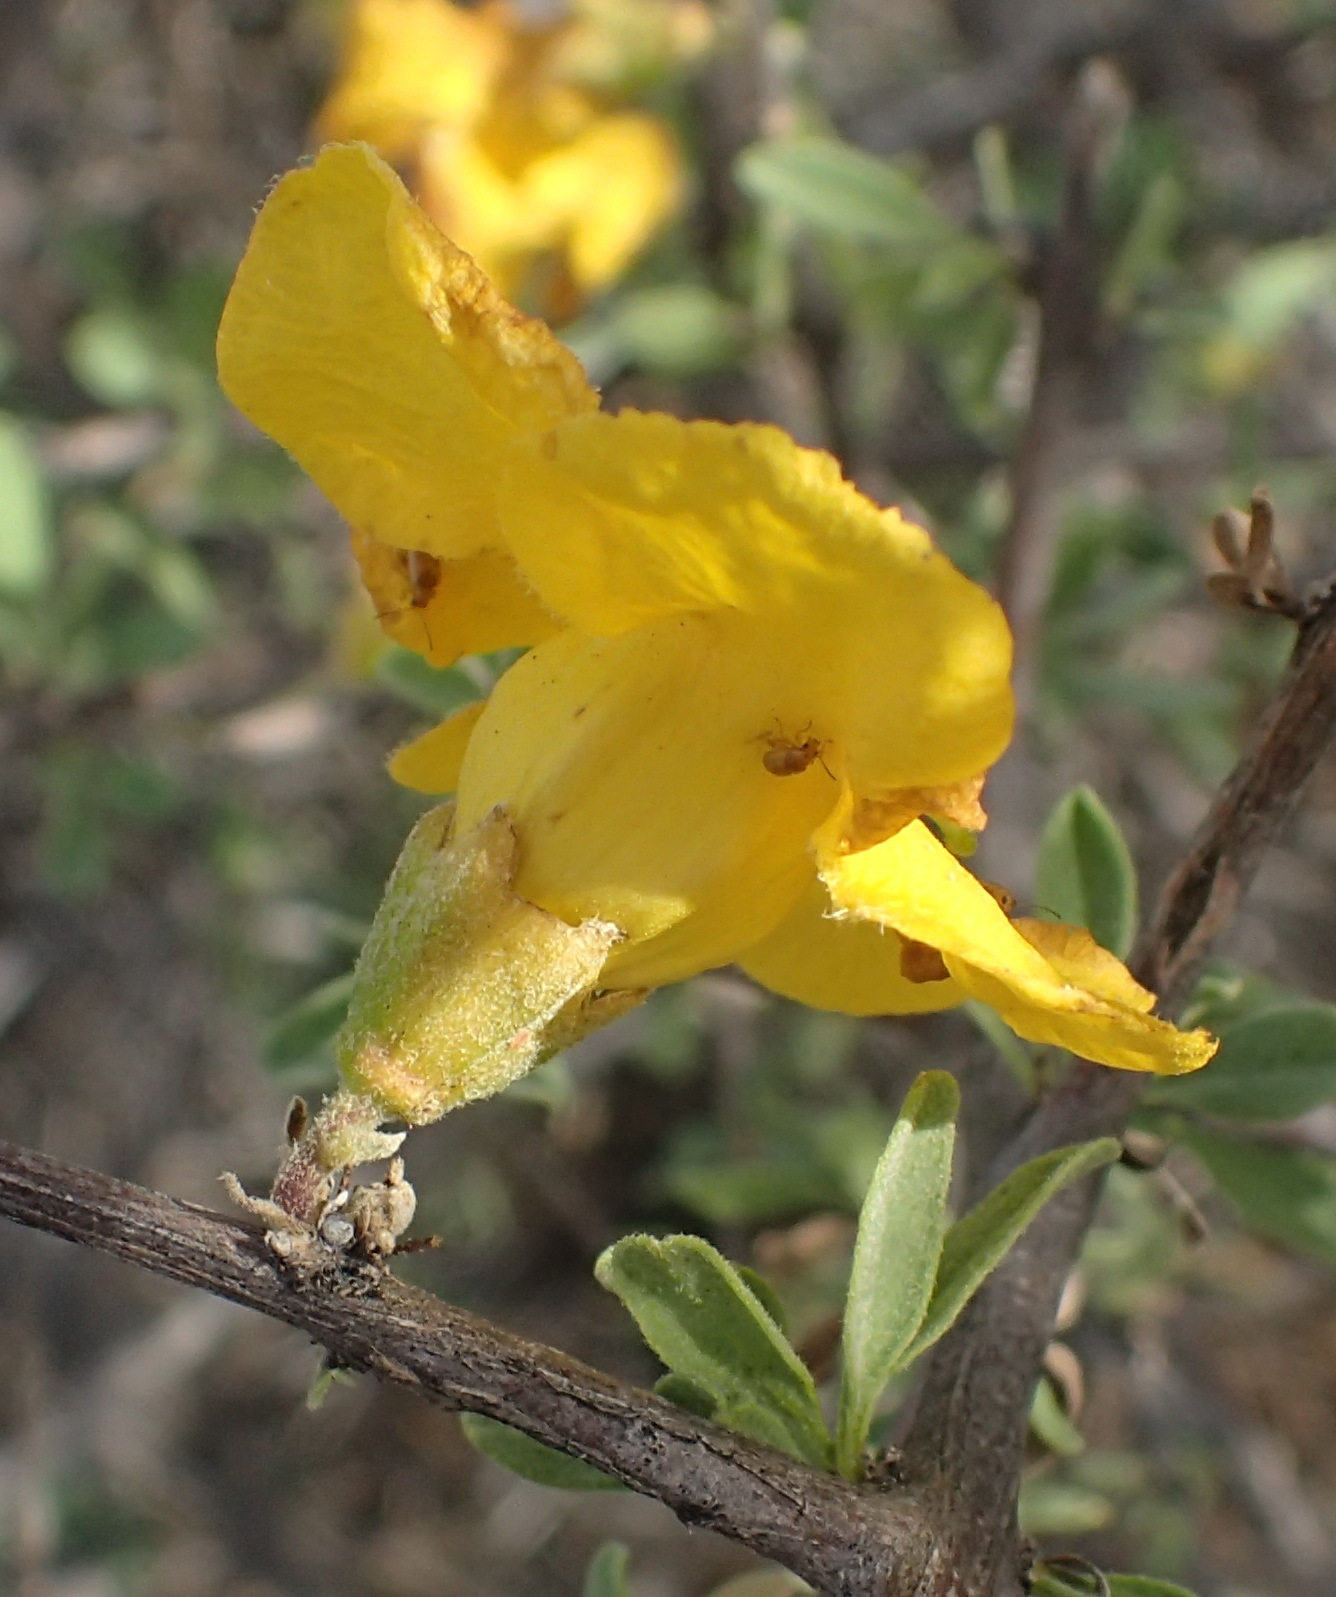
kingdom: Plantae
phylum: Tracheophyta
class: Magnoliopsida
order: Lamiales
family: Bignoniaceae
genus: Rhigozum
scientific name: Rhigozum obovatum
